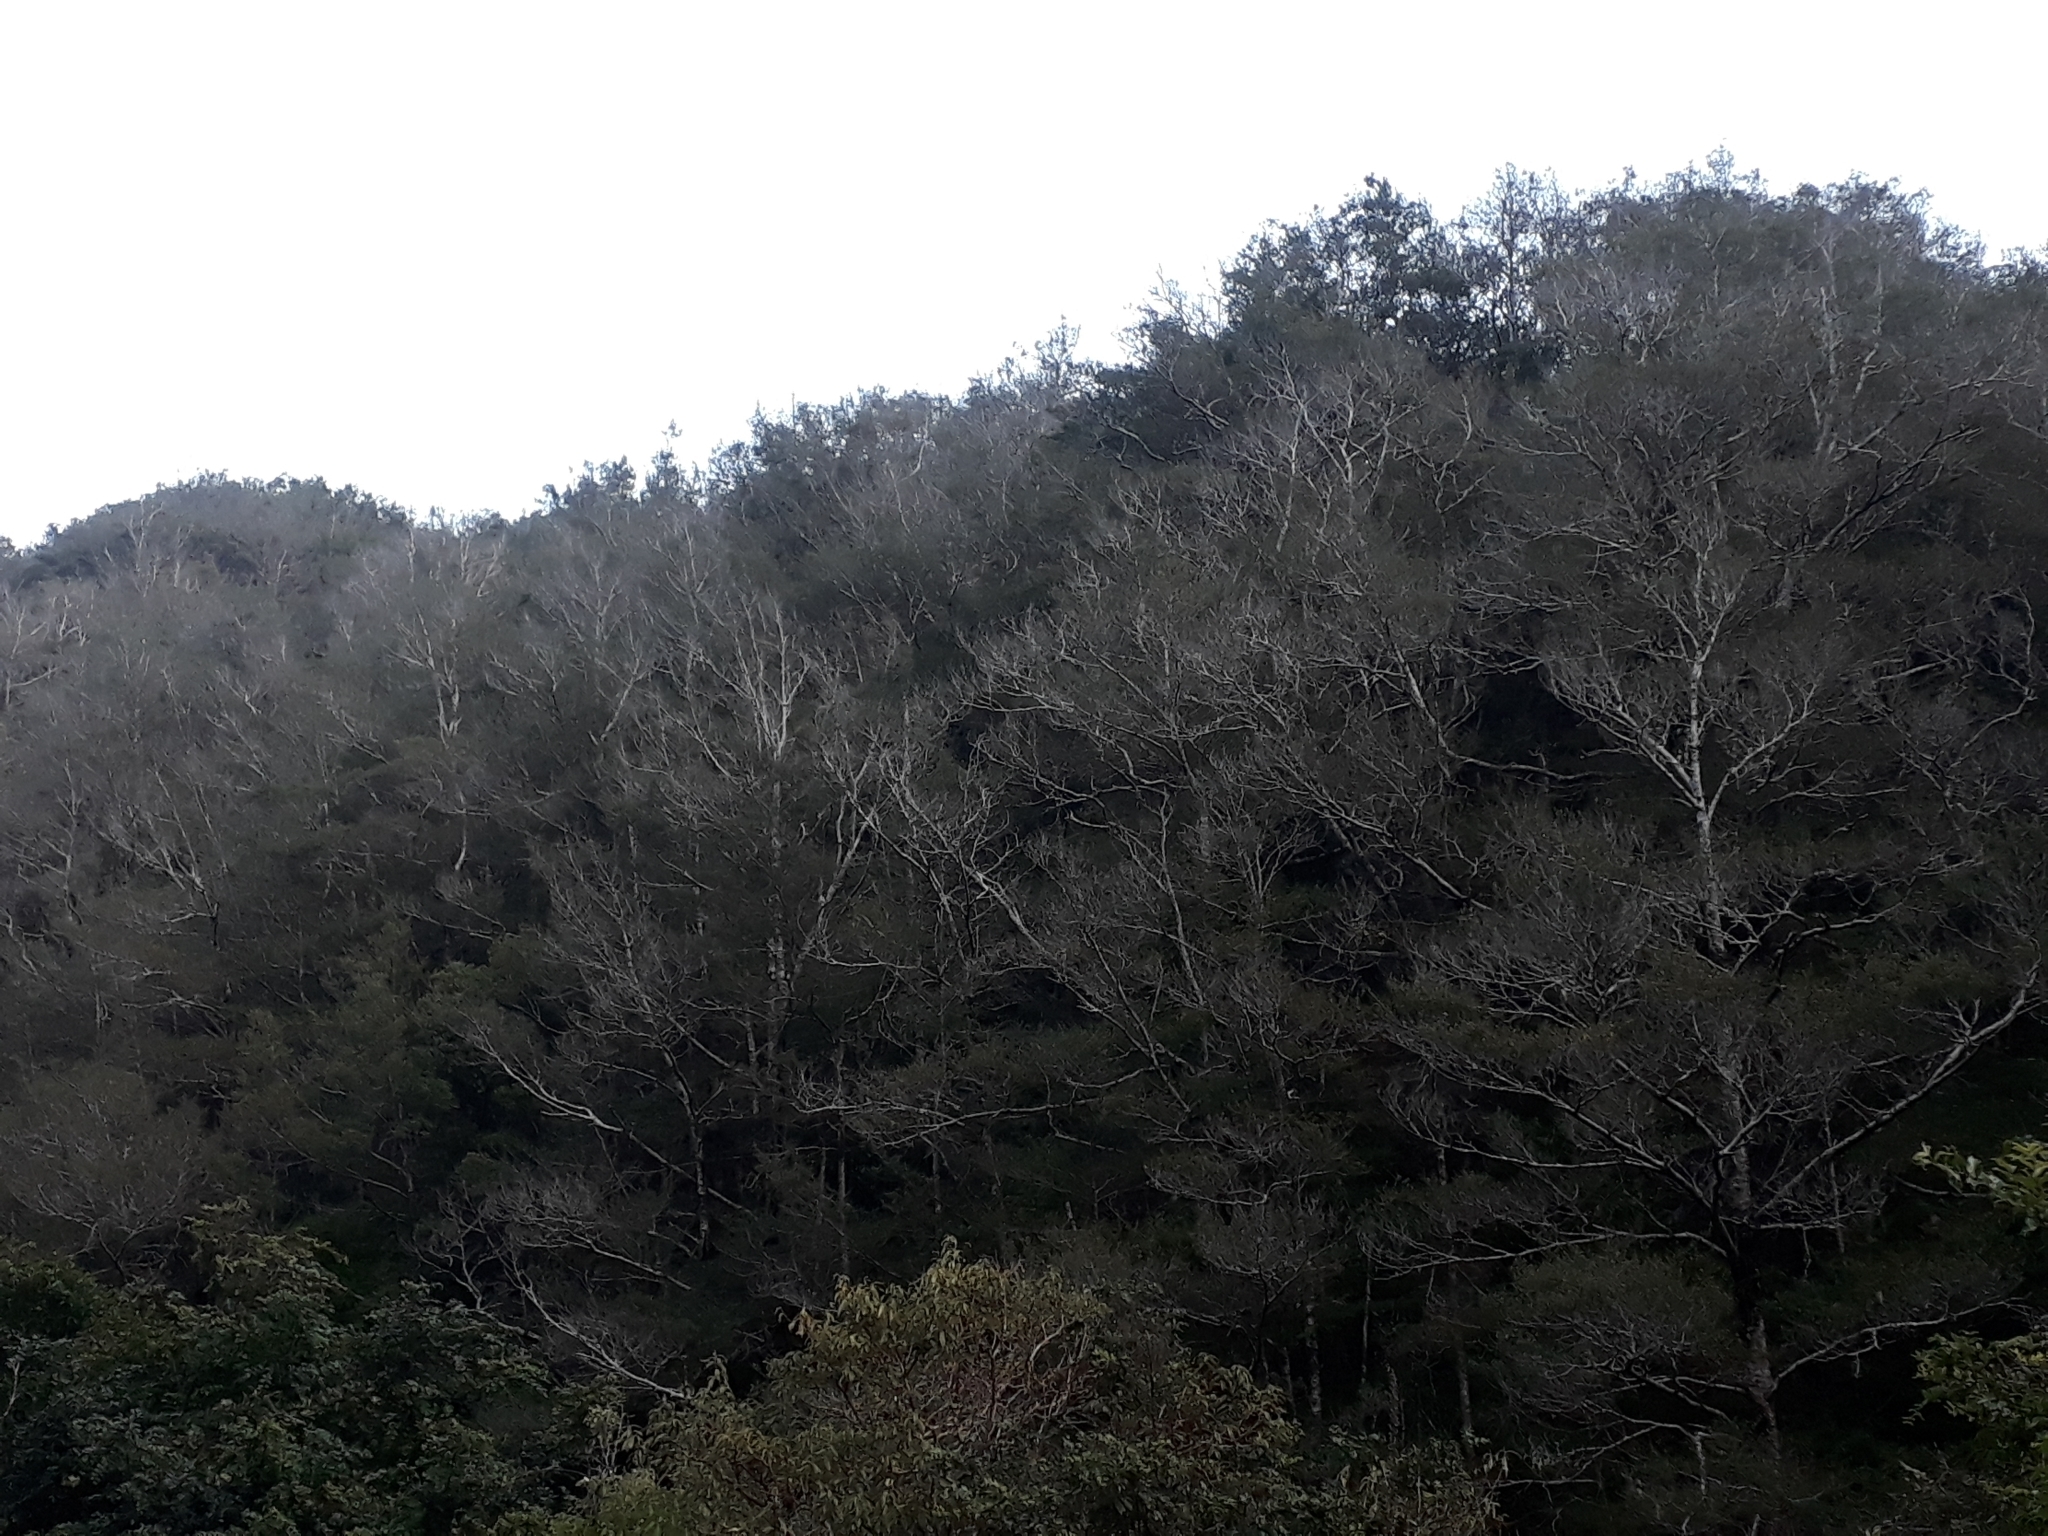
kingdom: Plantae
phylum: Tracheophyta
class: Magnoliopsida
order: Fagales
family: Nothofagaceae
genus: Nothofagus
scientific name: Nothofagus truncata
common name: Hard beech
